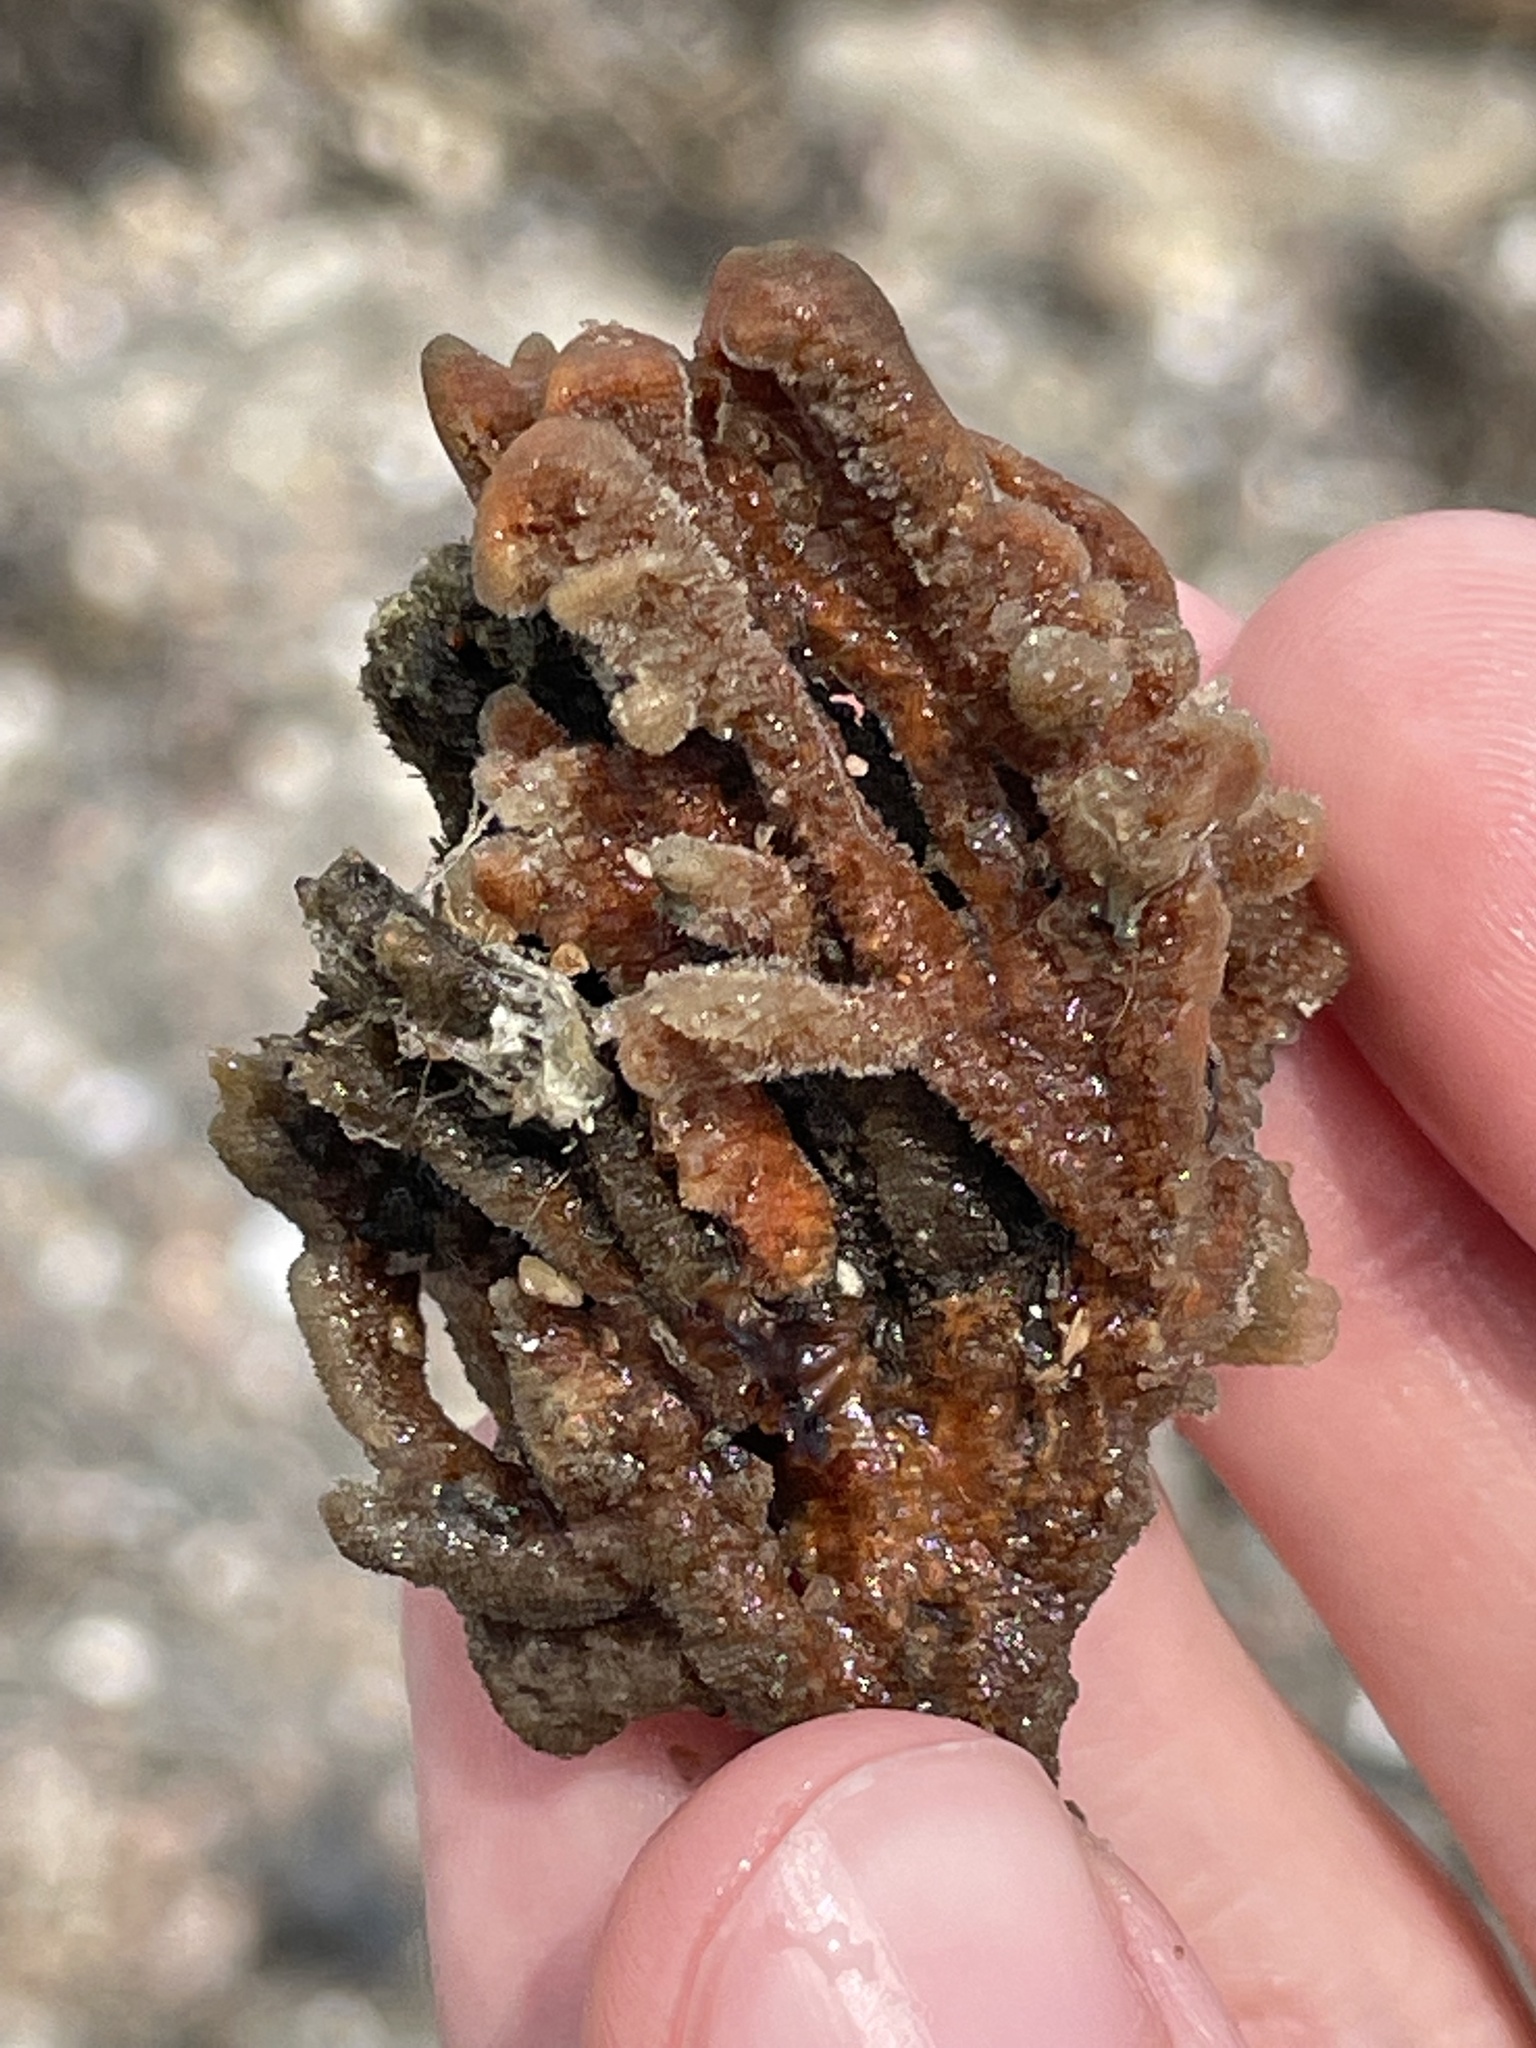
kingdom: Animalia
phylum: Porifera
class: Demospongiae
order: Poecilosclerida
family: Microcionidae
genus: Clathria
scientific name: Clathria prolifera
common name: Red beard sponge
